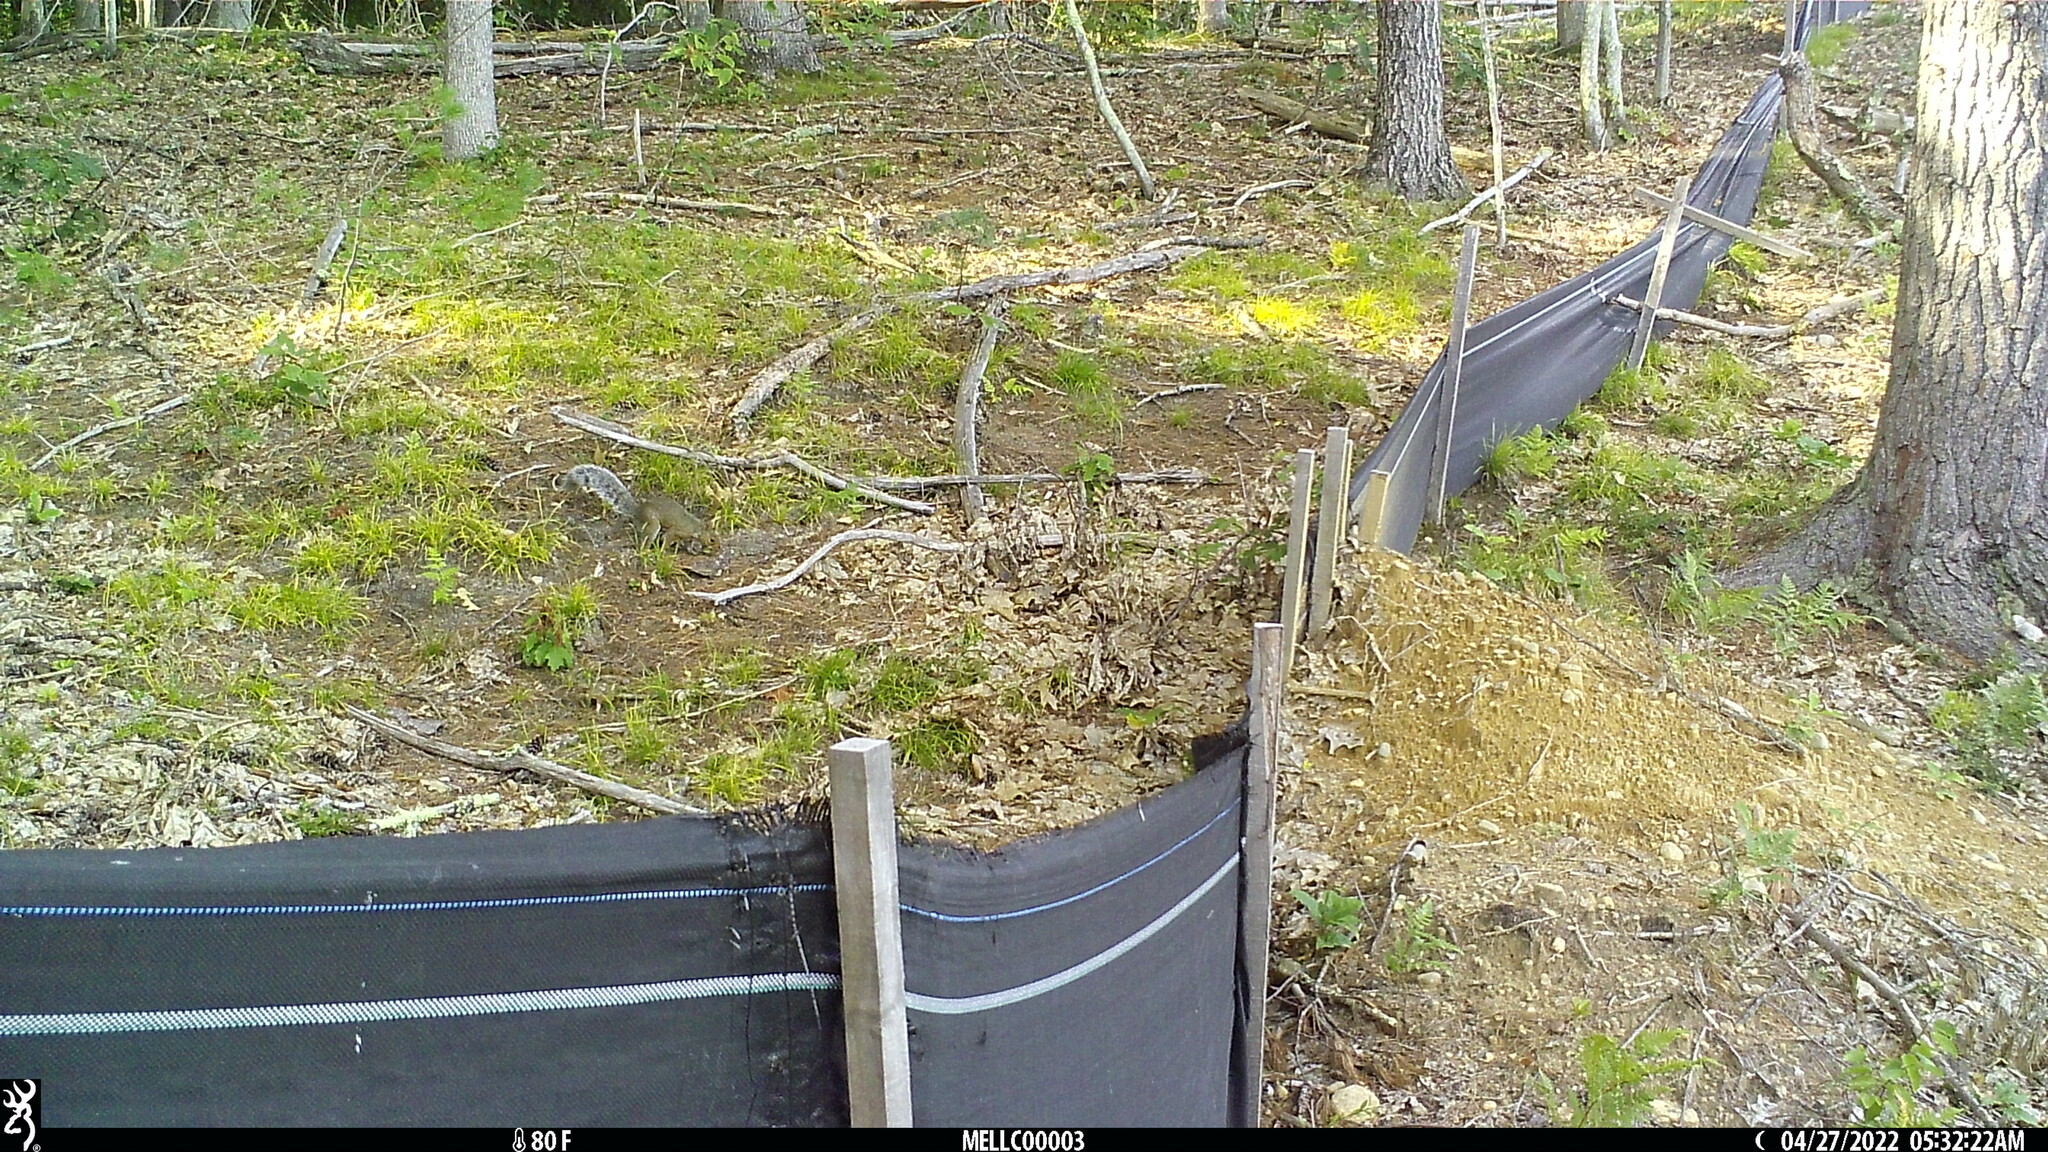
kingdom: Animalia
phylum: Chordata
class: Mammalia
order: Rodentia
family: Sciuridae
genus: Sciurus
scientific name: Sciurus carolinensis
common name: Eastern gray squirrel
